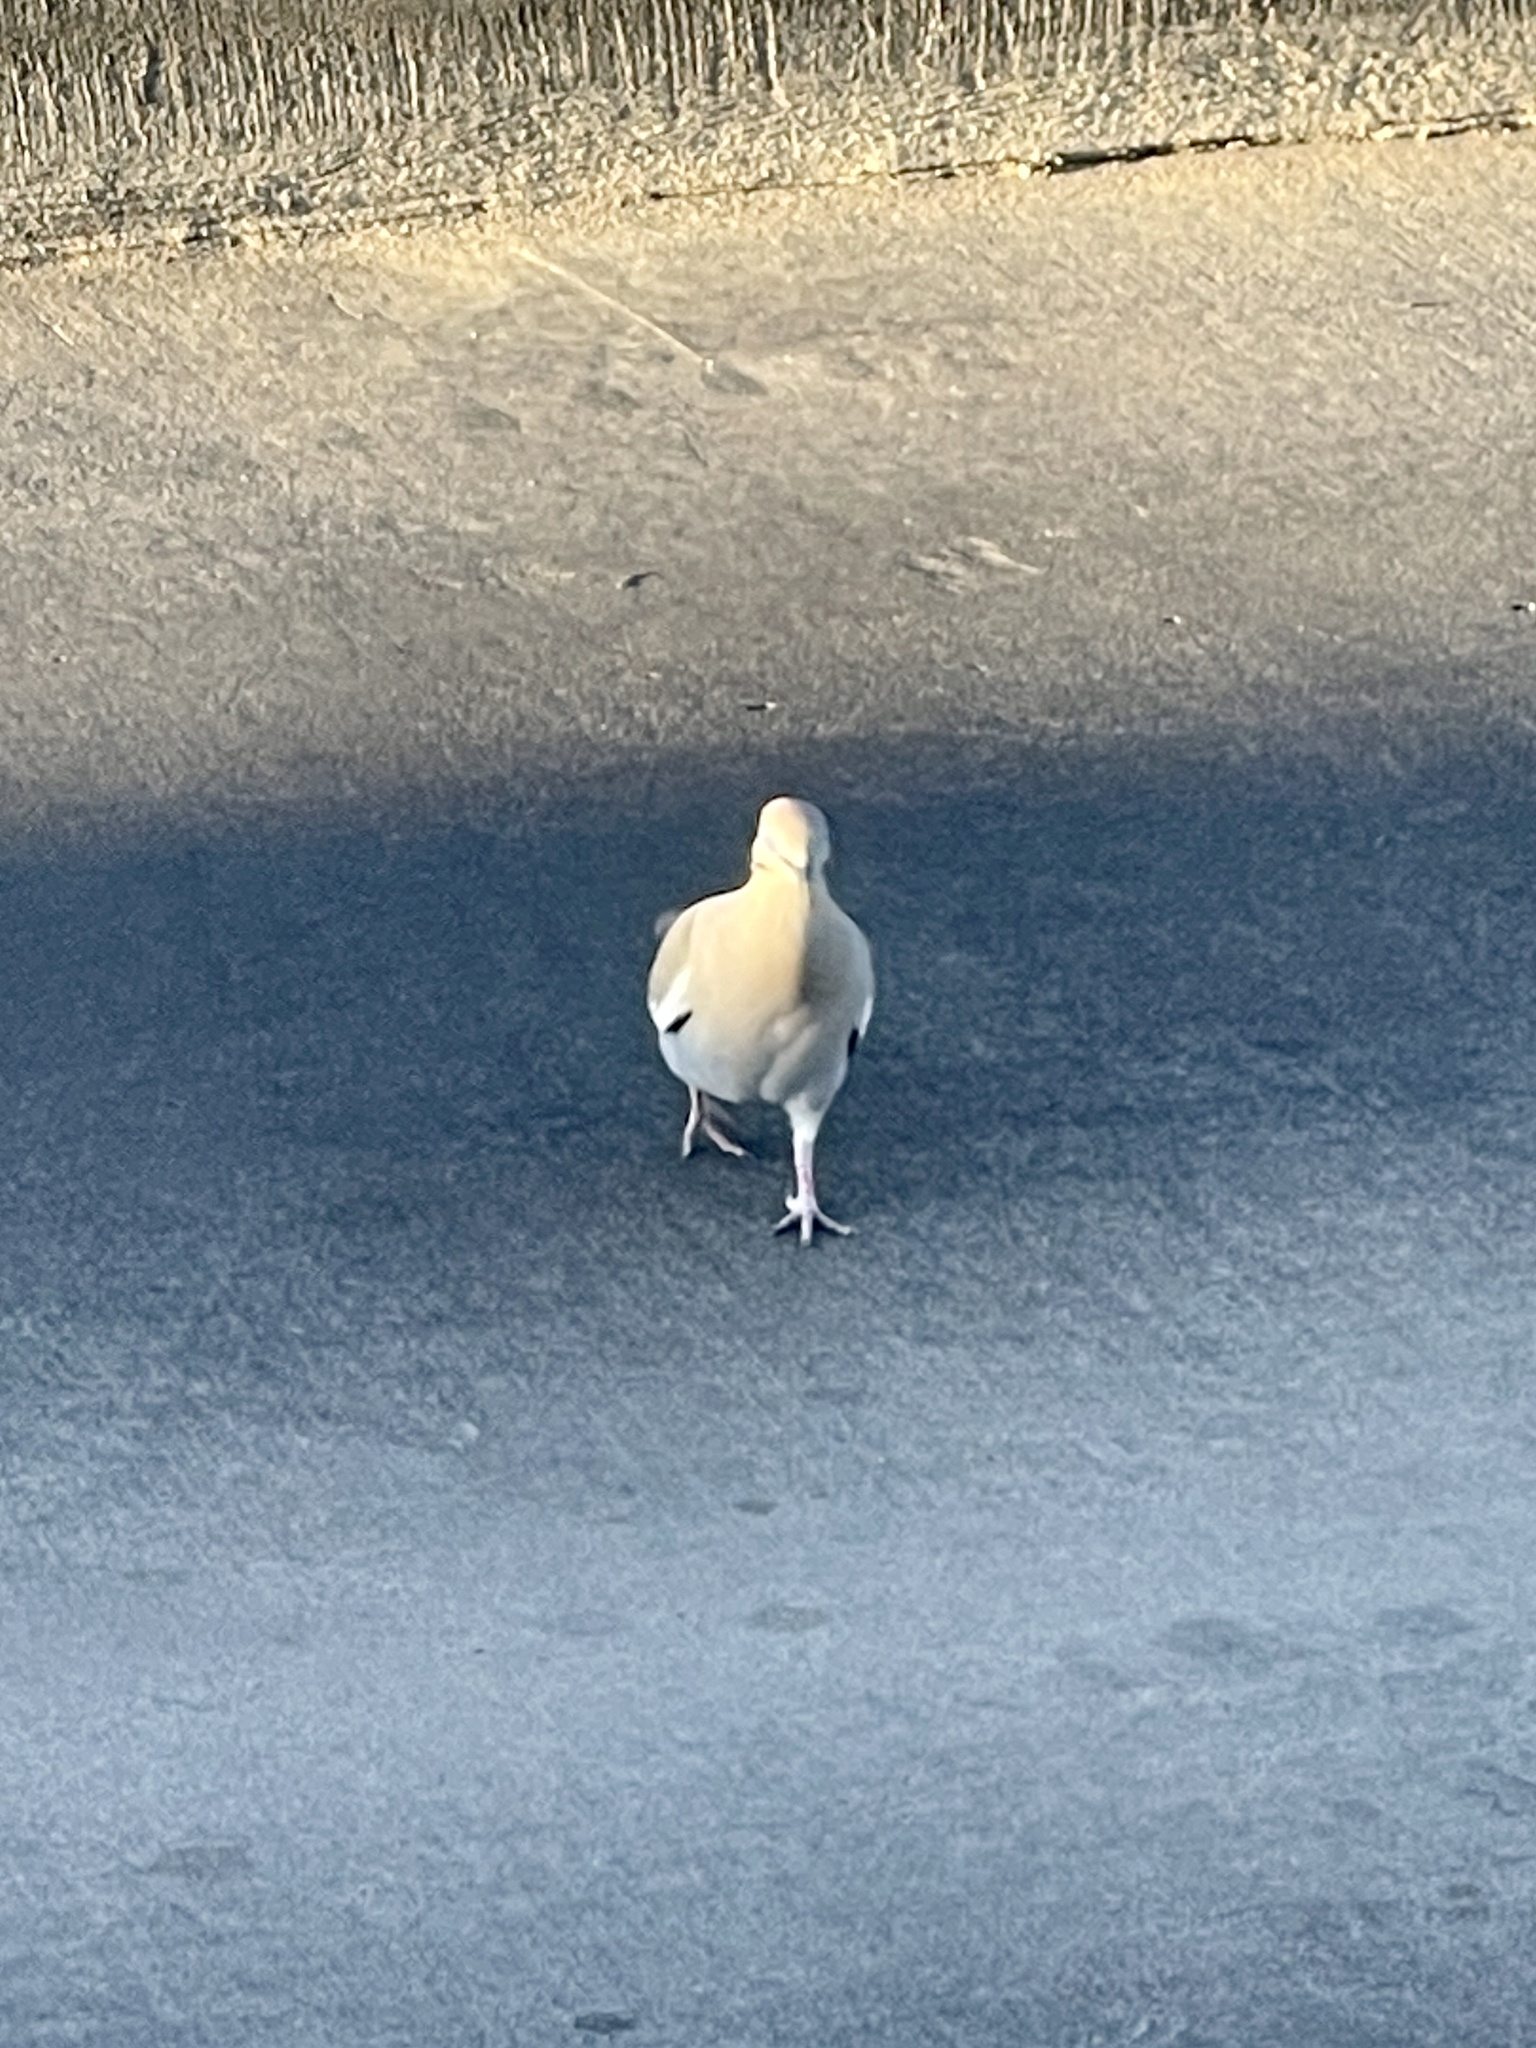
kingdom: Animalia
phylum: Chordata
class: Aves
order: Columbiformes
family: Columbidae
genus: Zenaida
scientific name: Zenaida asiatica
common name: White-winged dove
